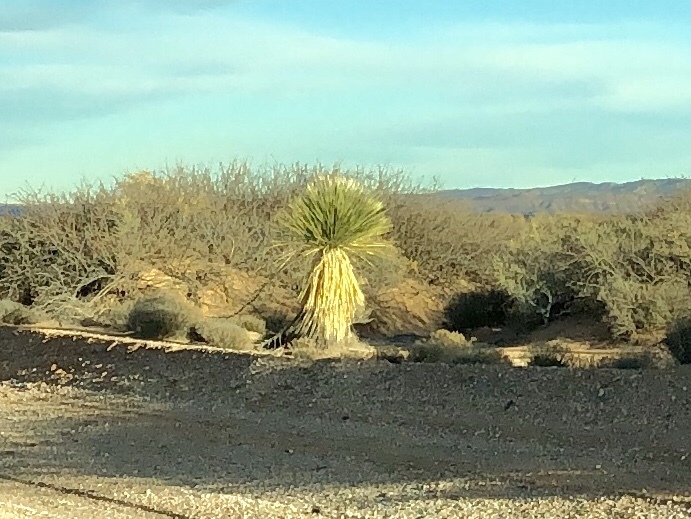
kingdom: Plantae
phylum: Tracheophyta
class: Liliopsida
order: Asparagales
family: Asparagaceae
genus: Yucca
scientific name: Yucca elata
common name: Palmella
